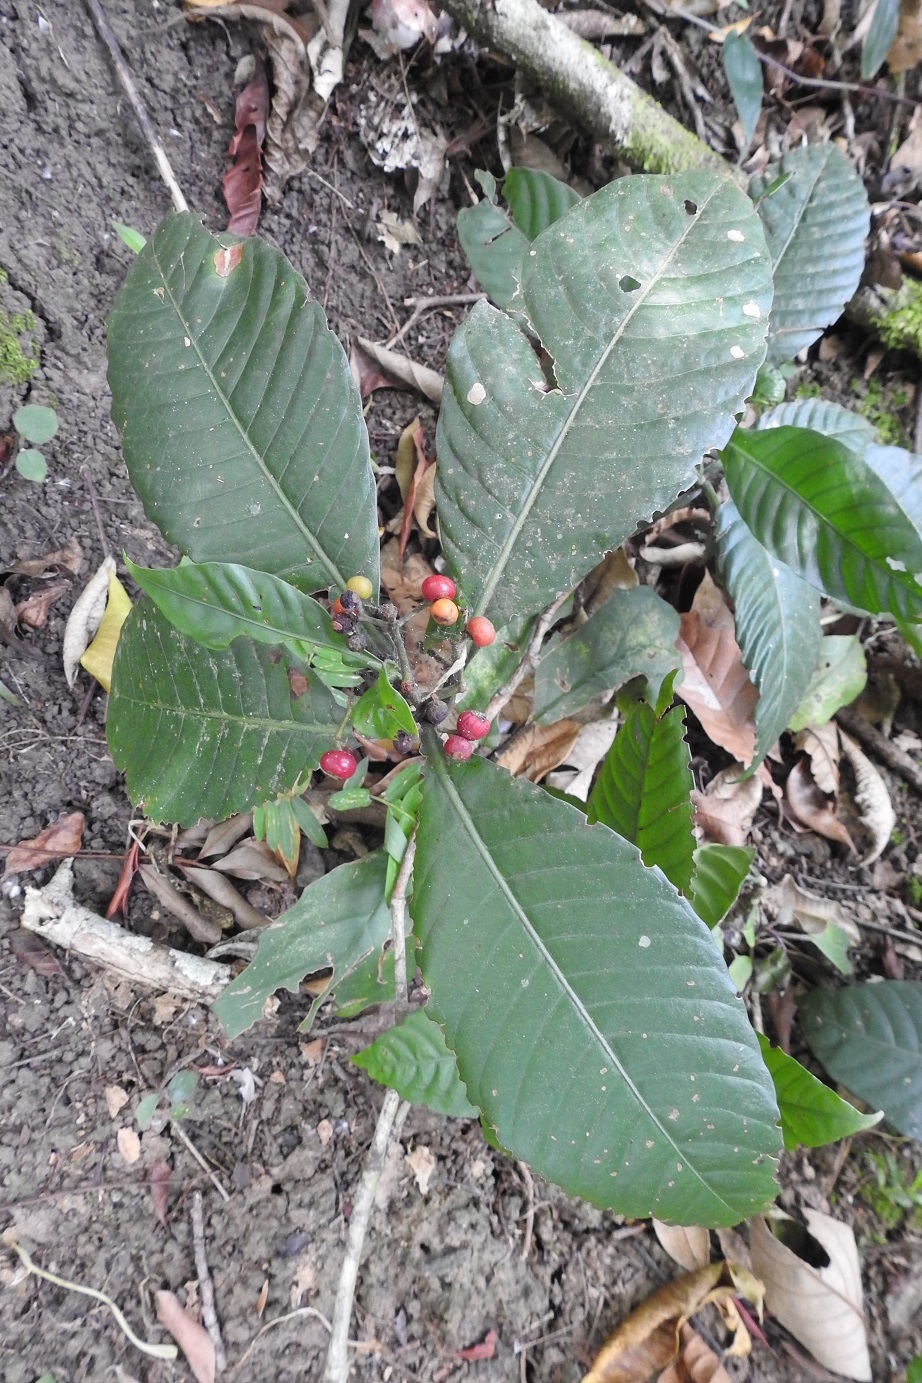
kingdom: Plantae
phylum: Tracheophyta
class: Magnoliopsida
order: Gentianales
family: Rubiaceae
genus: Psychotria
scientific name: Psychotria mexiae
